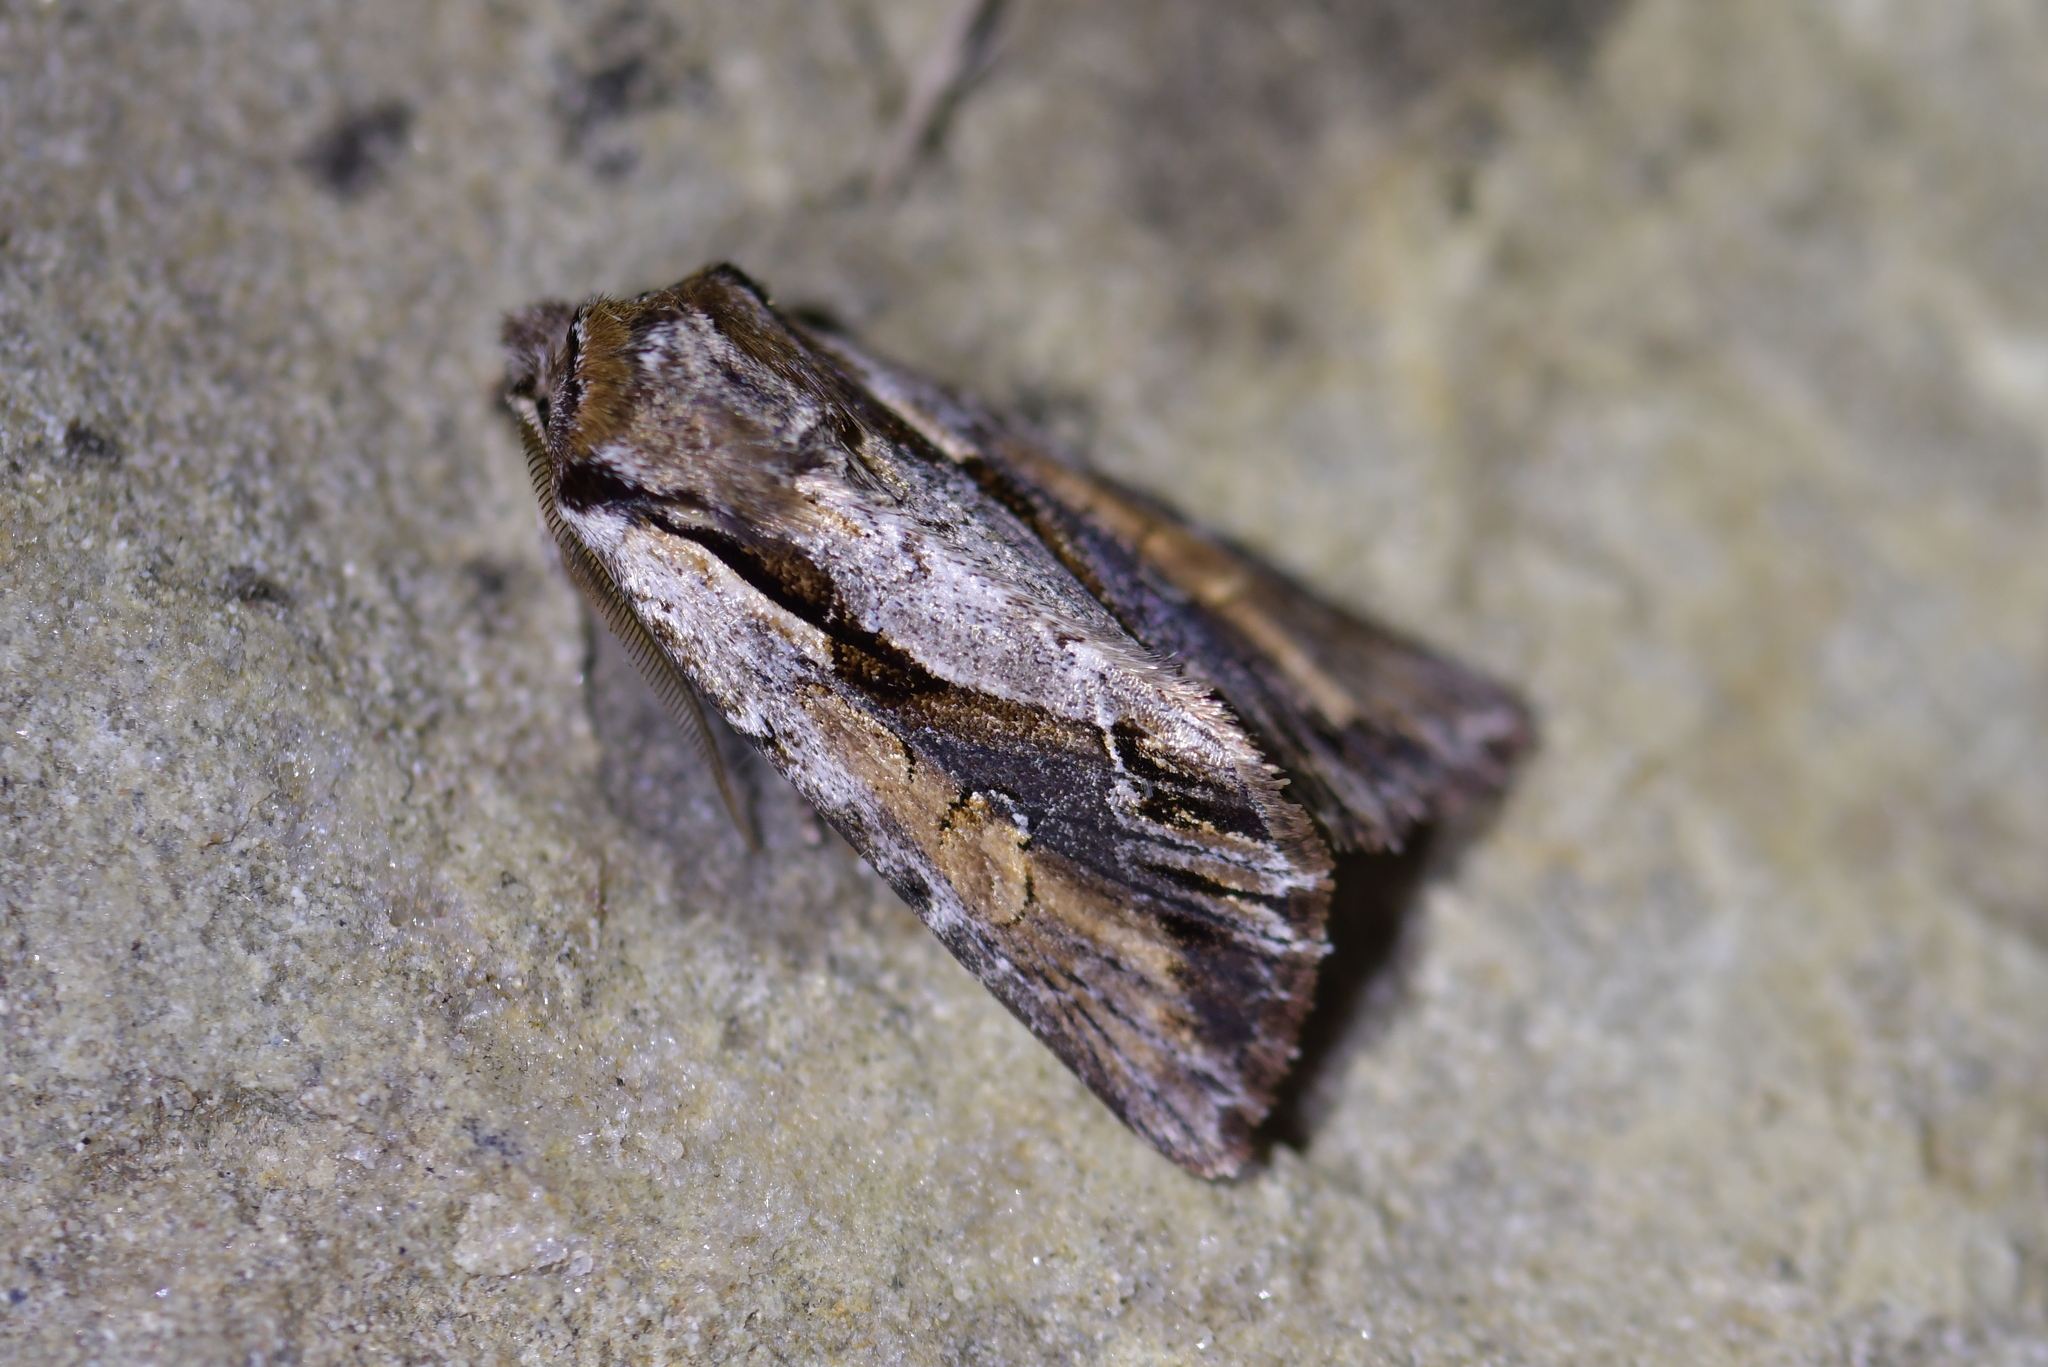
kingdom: Animalia
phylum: Arthropoda
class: Insecta
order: Lepidoptera
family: Noctuidae
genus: Ichneutica
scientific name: Ichneutica
